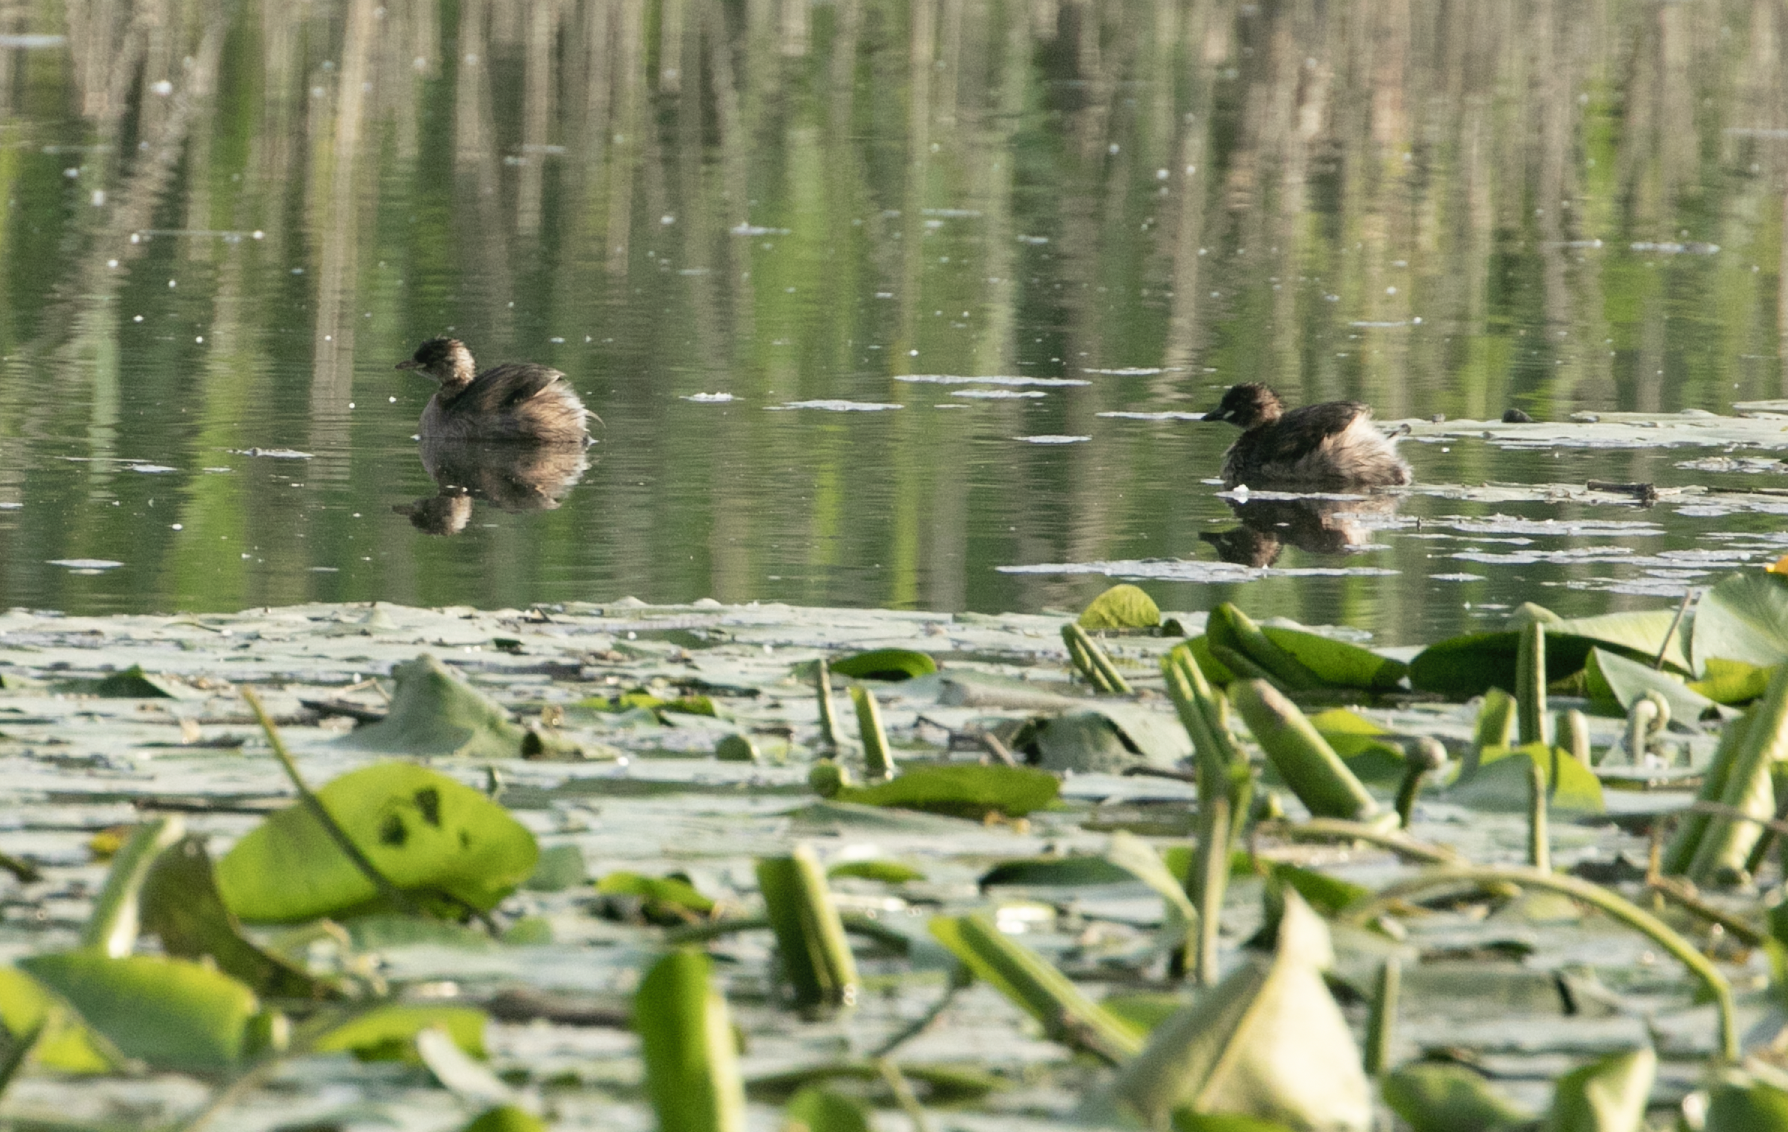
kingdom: Animalia
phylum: Chordata
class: Aves
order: Podicipediformes
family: Podicipedidae
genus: Tachybaptus
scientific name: Tachybaptus ruficollis
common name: Little grebe
